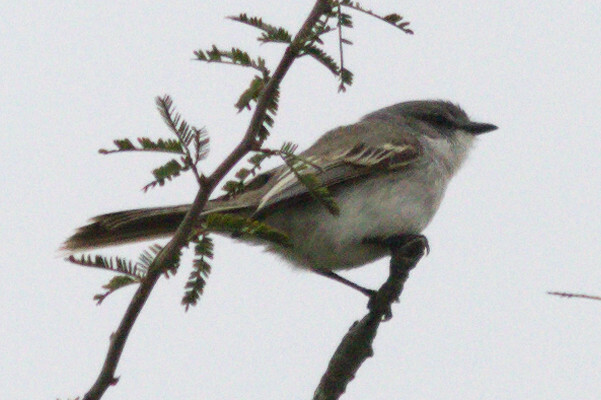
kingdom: Animalia
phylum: Chordata
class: Aves
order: Passeriformes
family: Tyrannidae
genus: Suiriri
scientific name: Suiriri suiriri
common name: Suiriri flycatcher
